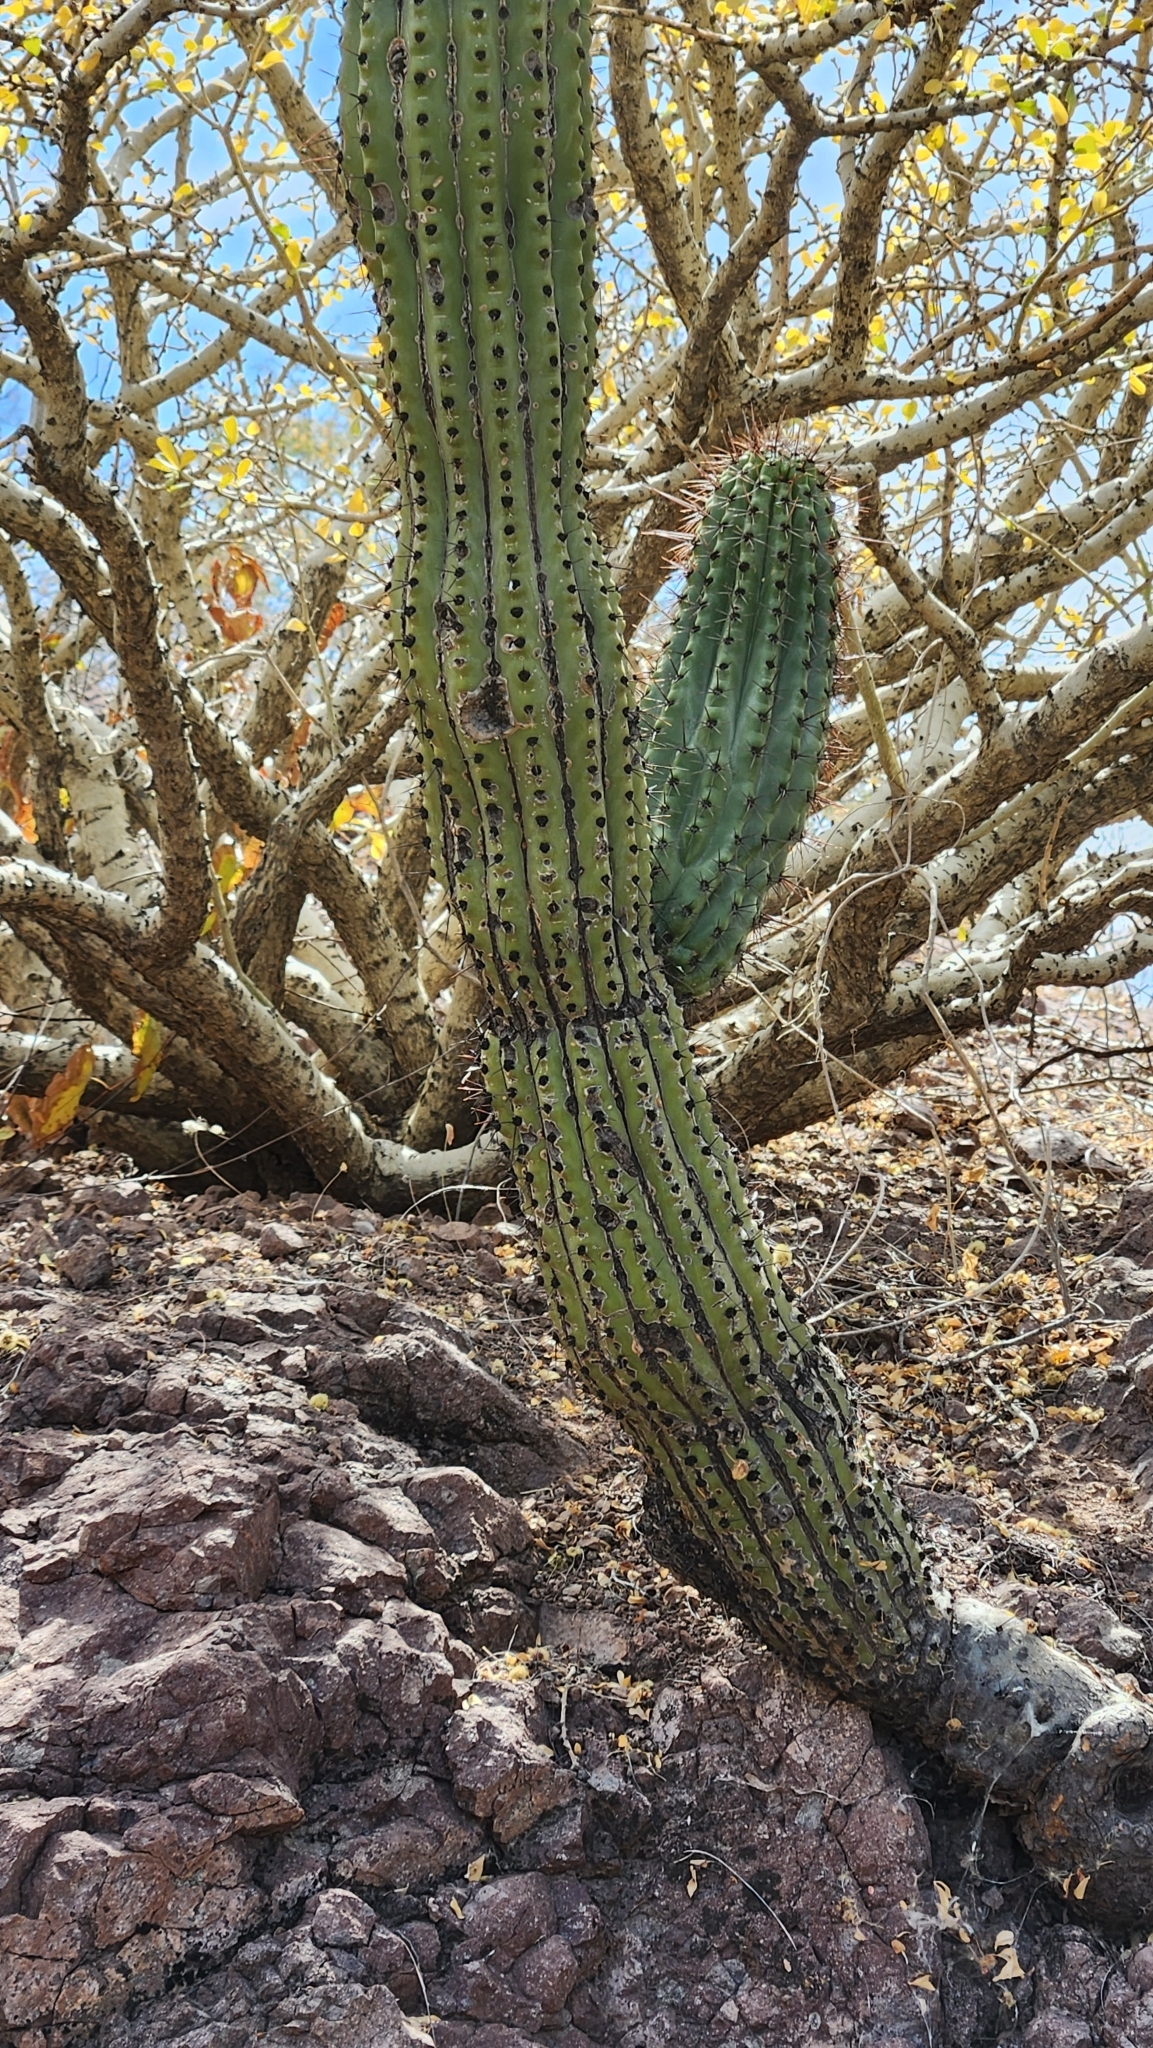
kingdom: Plantae
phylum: Tracheophyta
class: Magnoliopsida
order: Caryophyllales
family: Cactaceae
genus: Pachycereus
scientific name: Pachycereus pringlei
